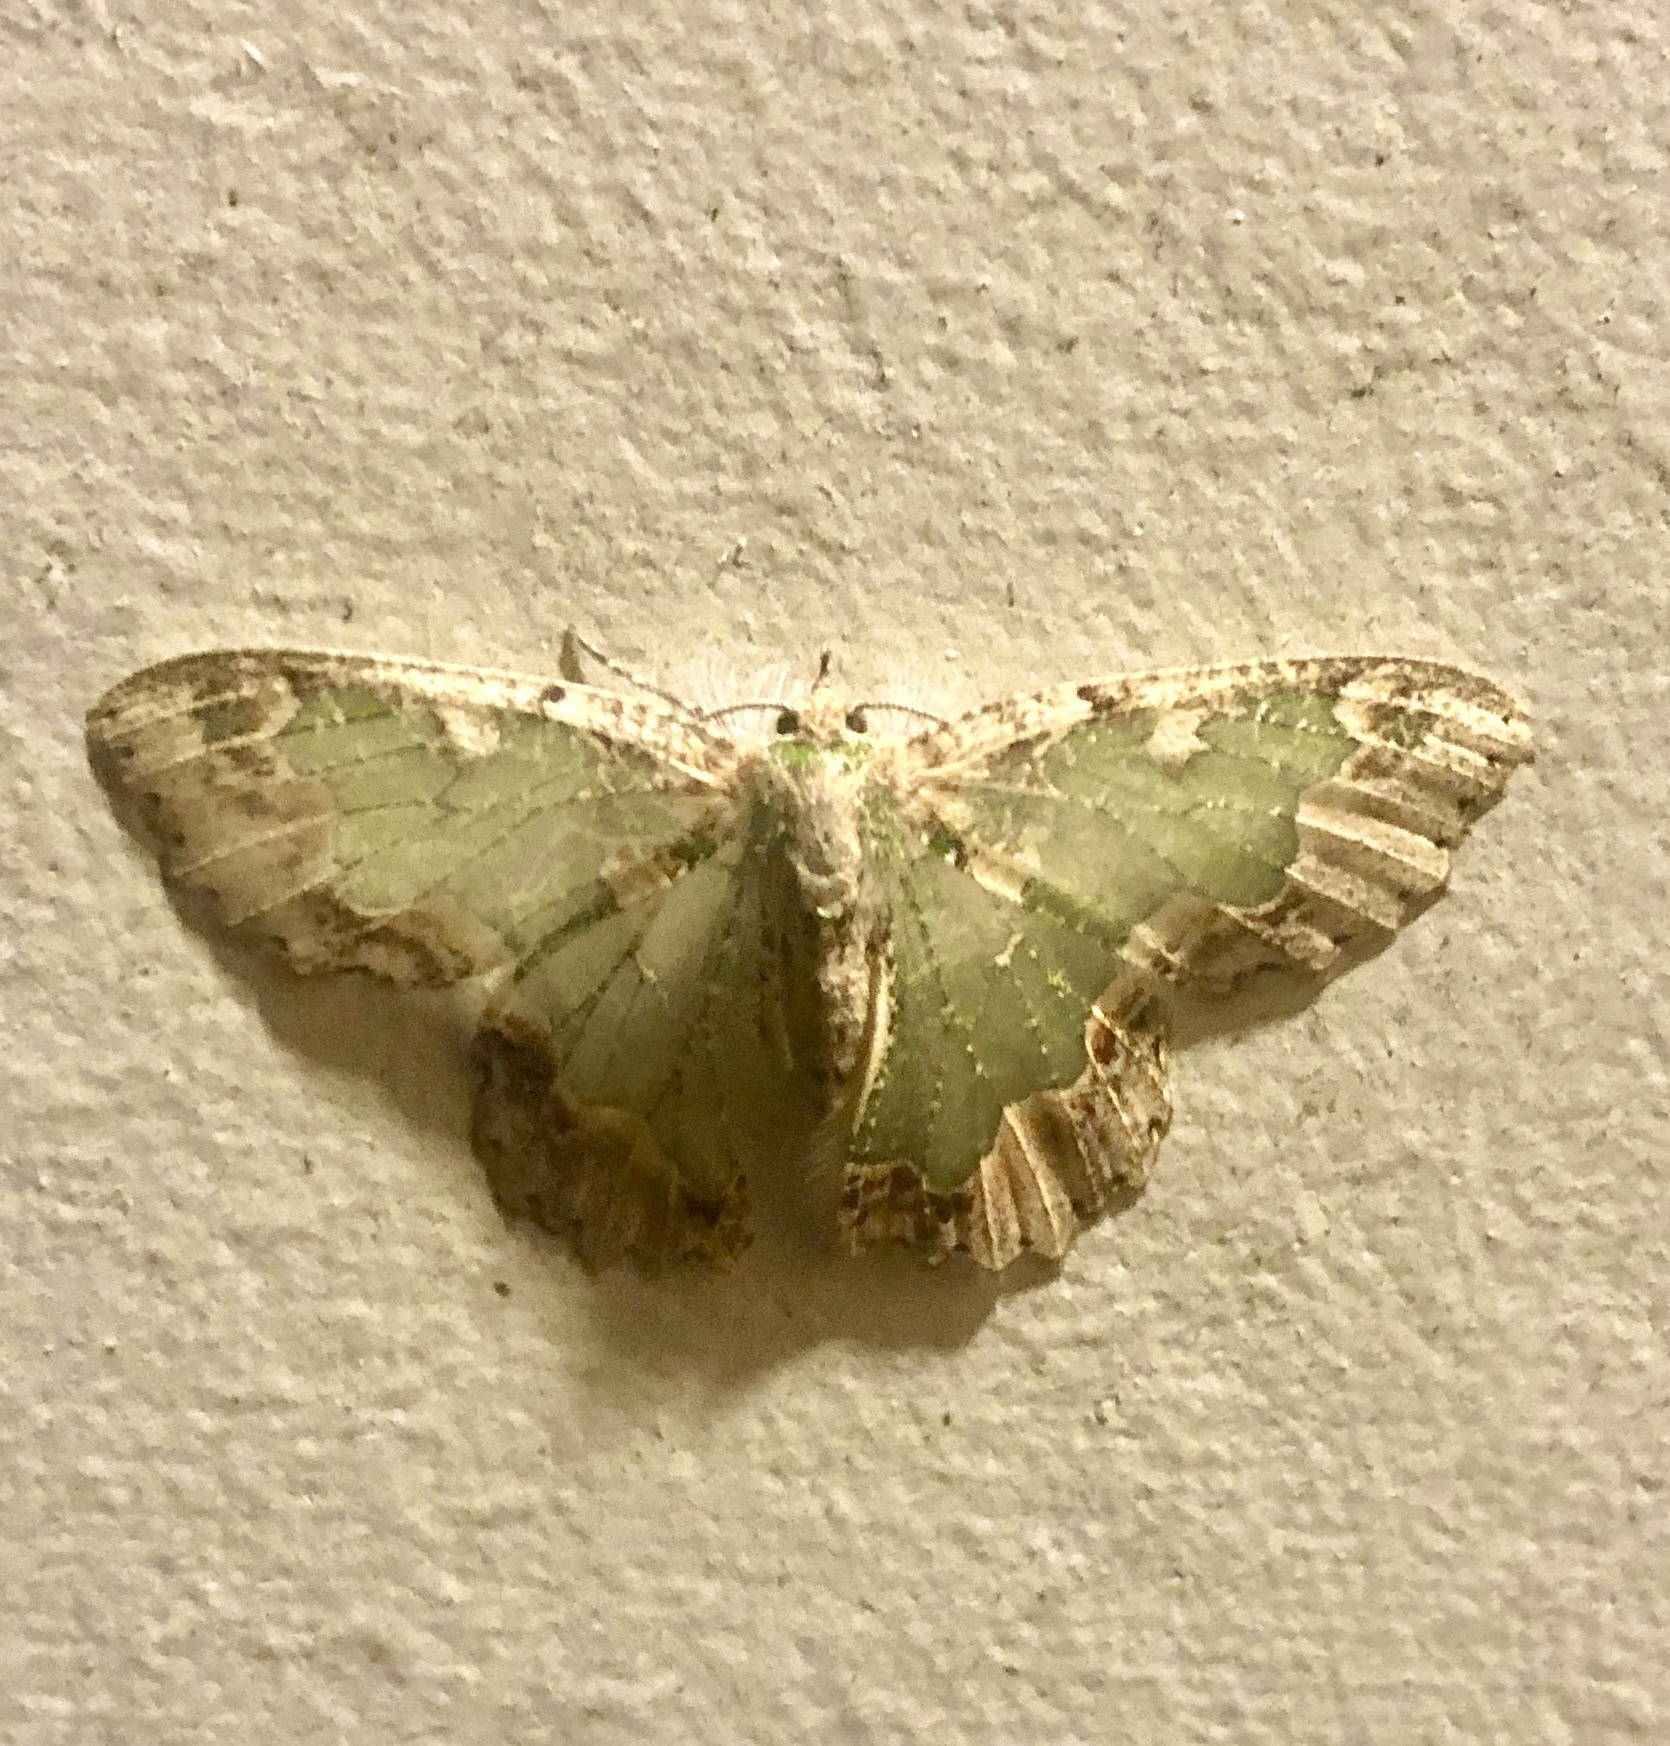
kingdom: Animalia
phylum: Arthropoda
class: Insecta
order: Lepidoptera
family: Geometridae
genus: Eucyclodes
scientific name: Eucyclodes pieroides
